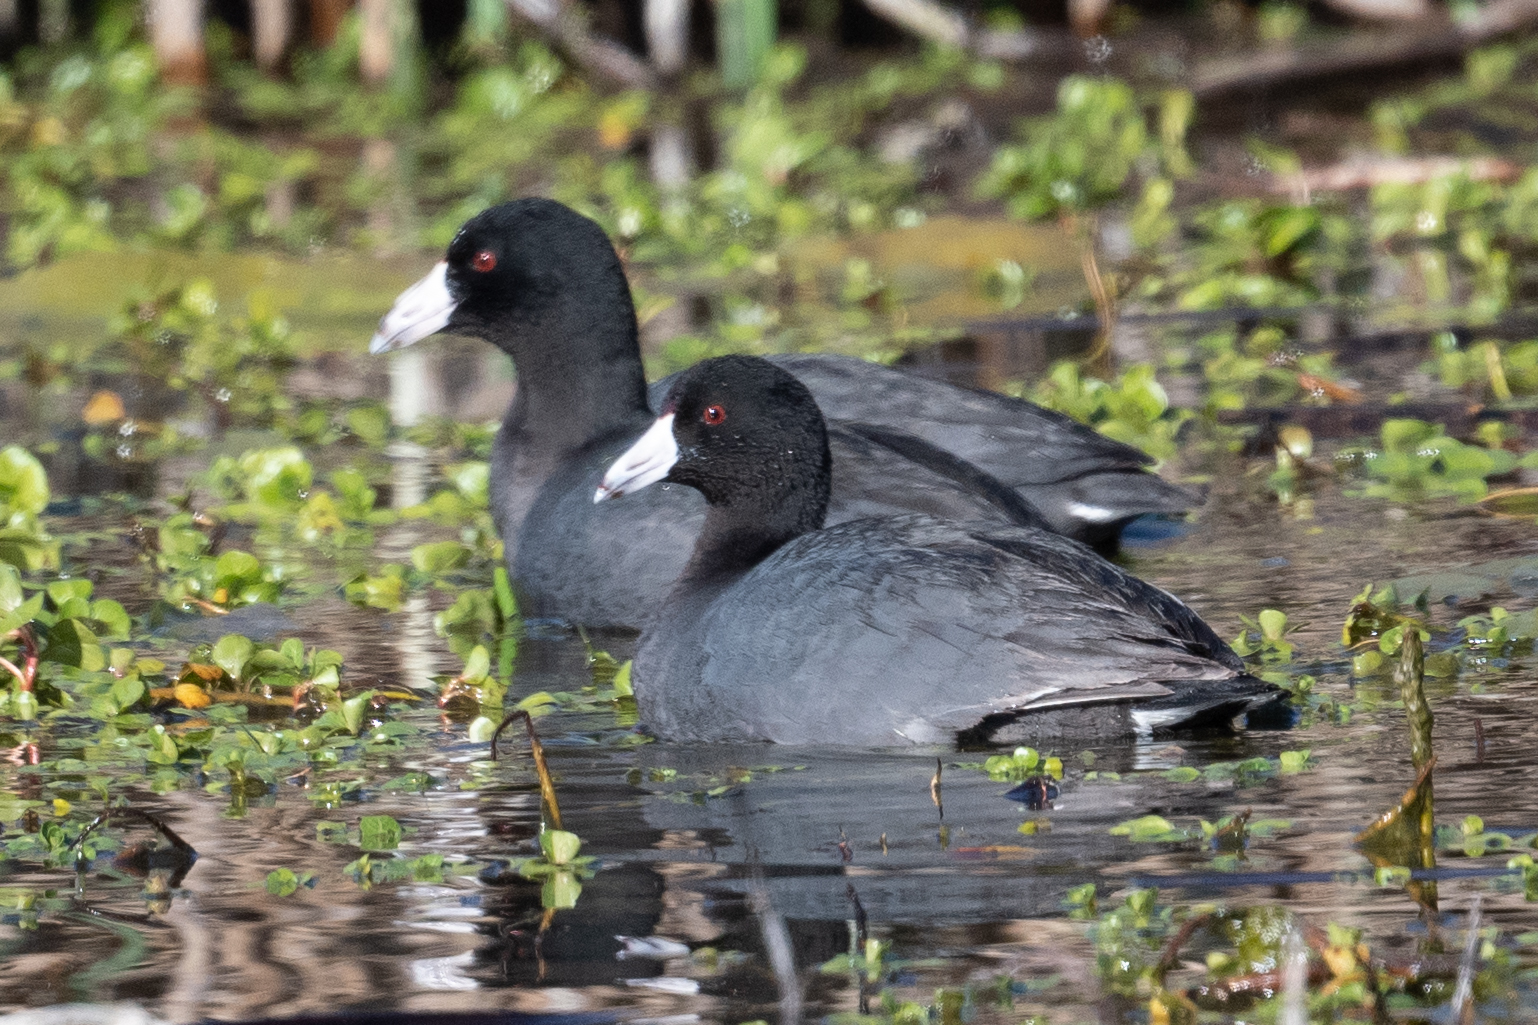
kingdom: Animalia
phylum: Chordata
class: Aves
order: Gruiformes
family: Rallidae
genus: Fulica
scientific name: Fulica americana
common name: American coot
